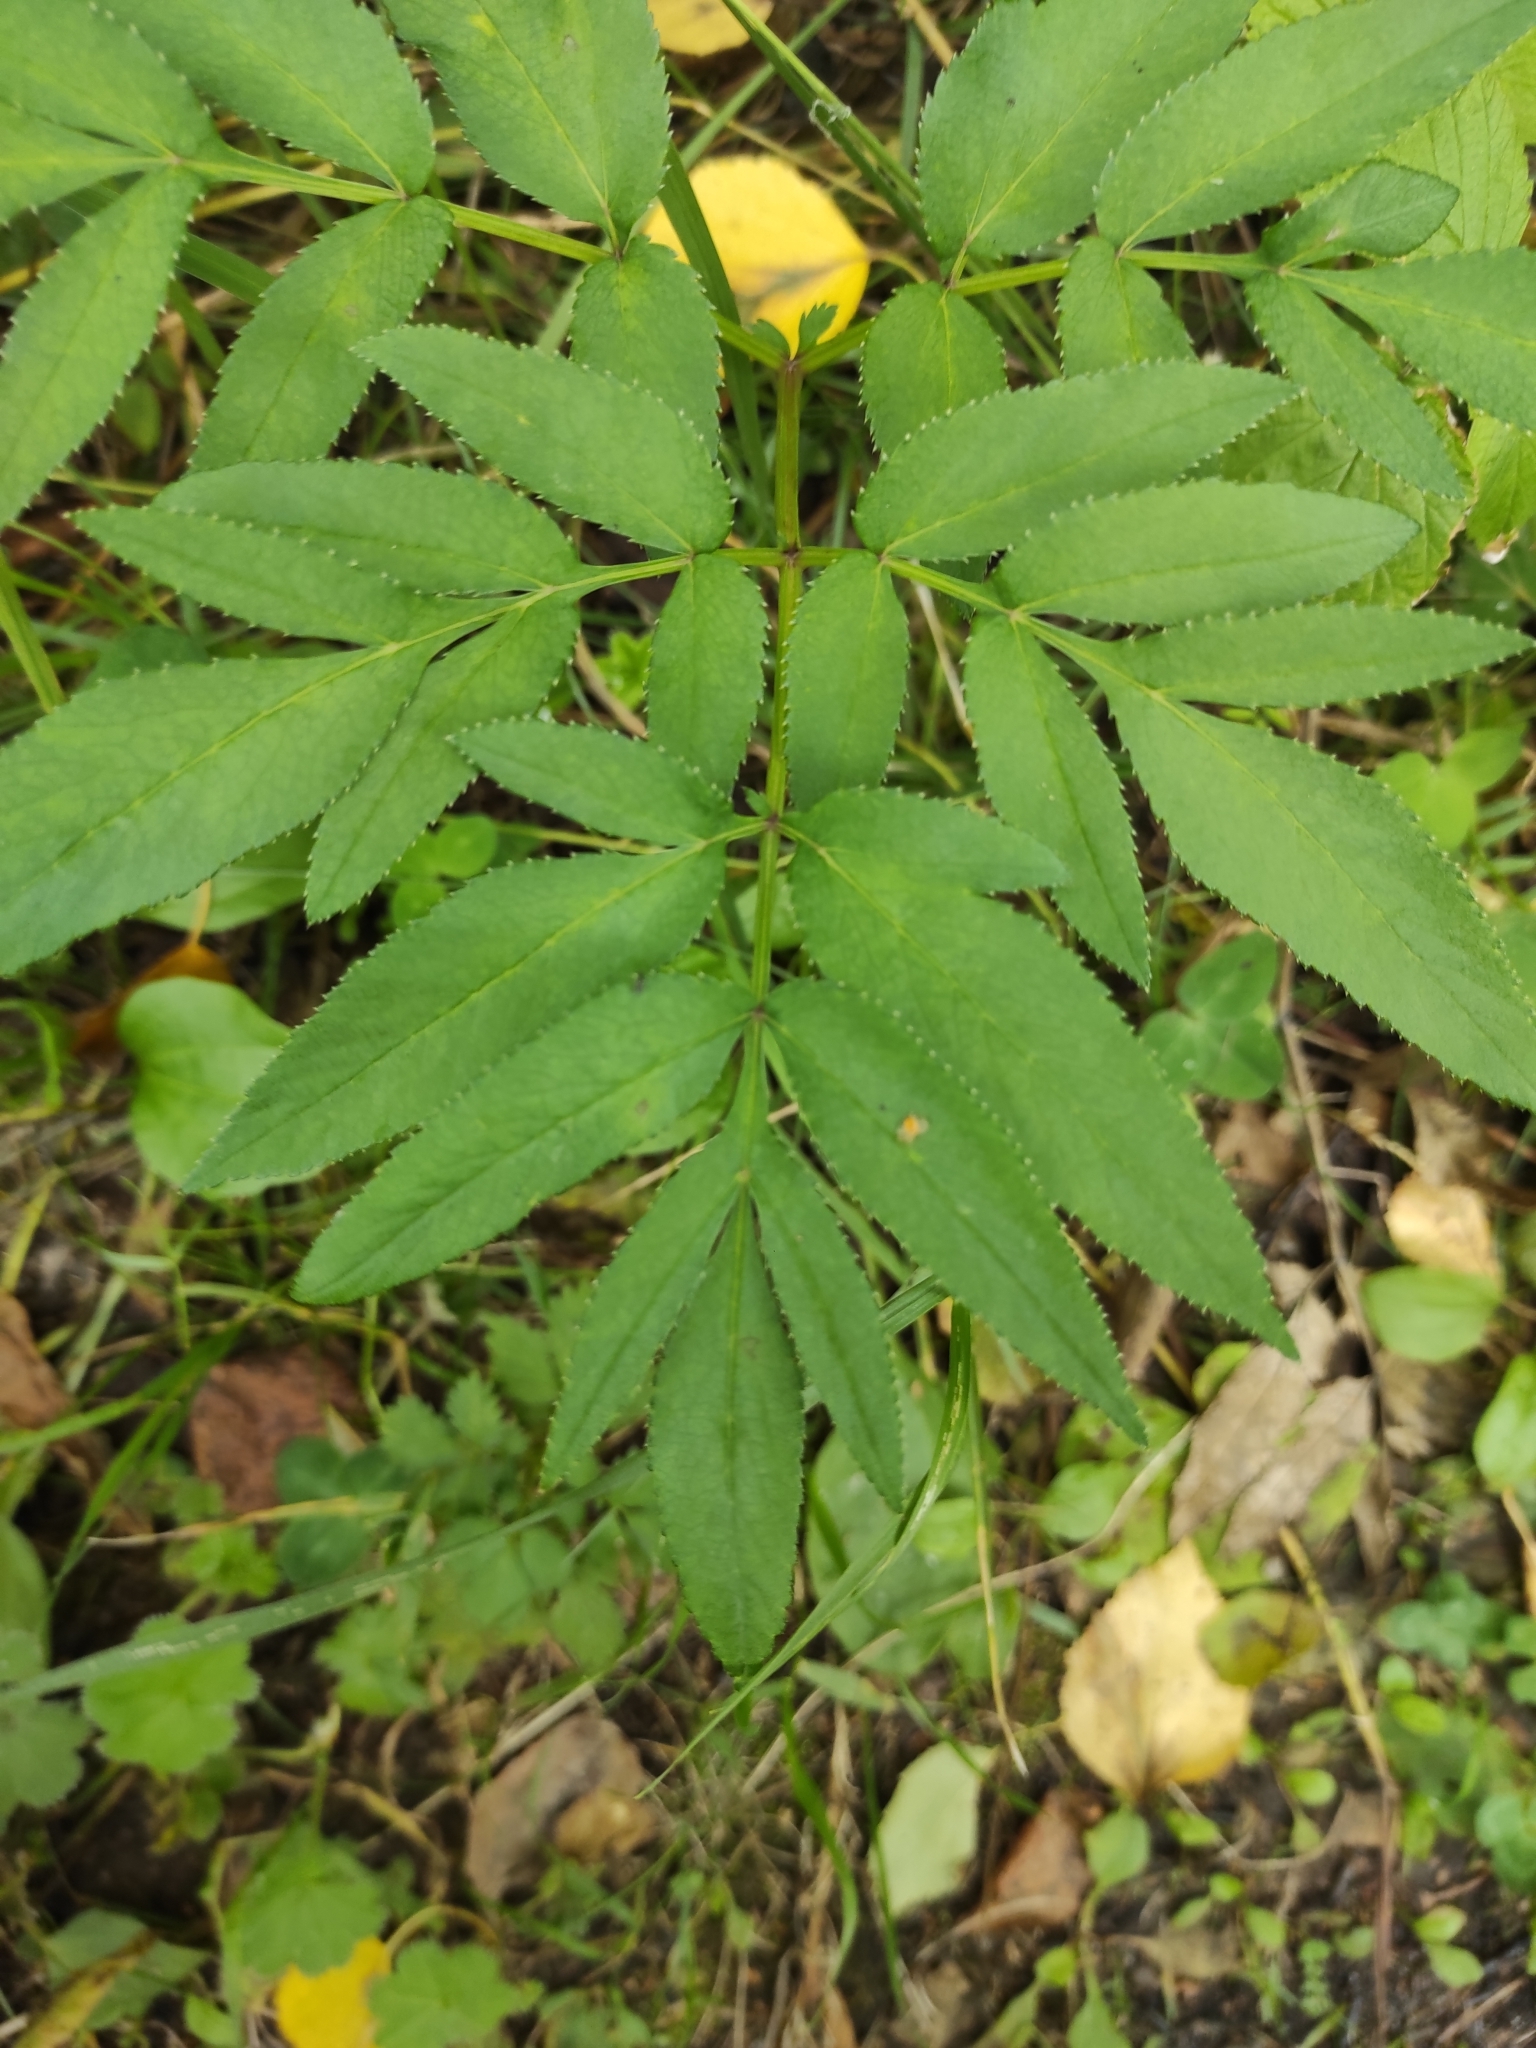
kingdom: Plantae
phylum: Tracheophyta
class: Magnoliopsida
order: Apiales
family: Apiaceae
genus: Angelica
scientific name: Angelica sylvestris
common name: Wild angelica
